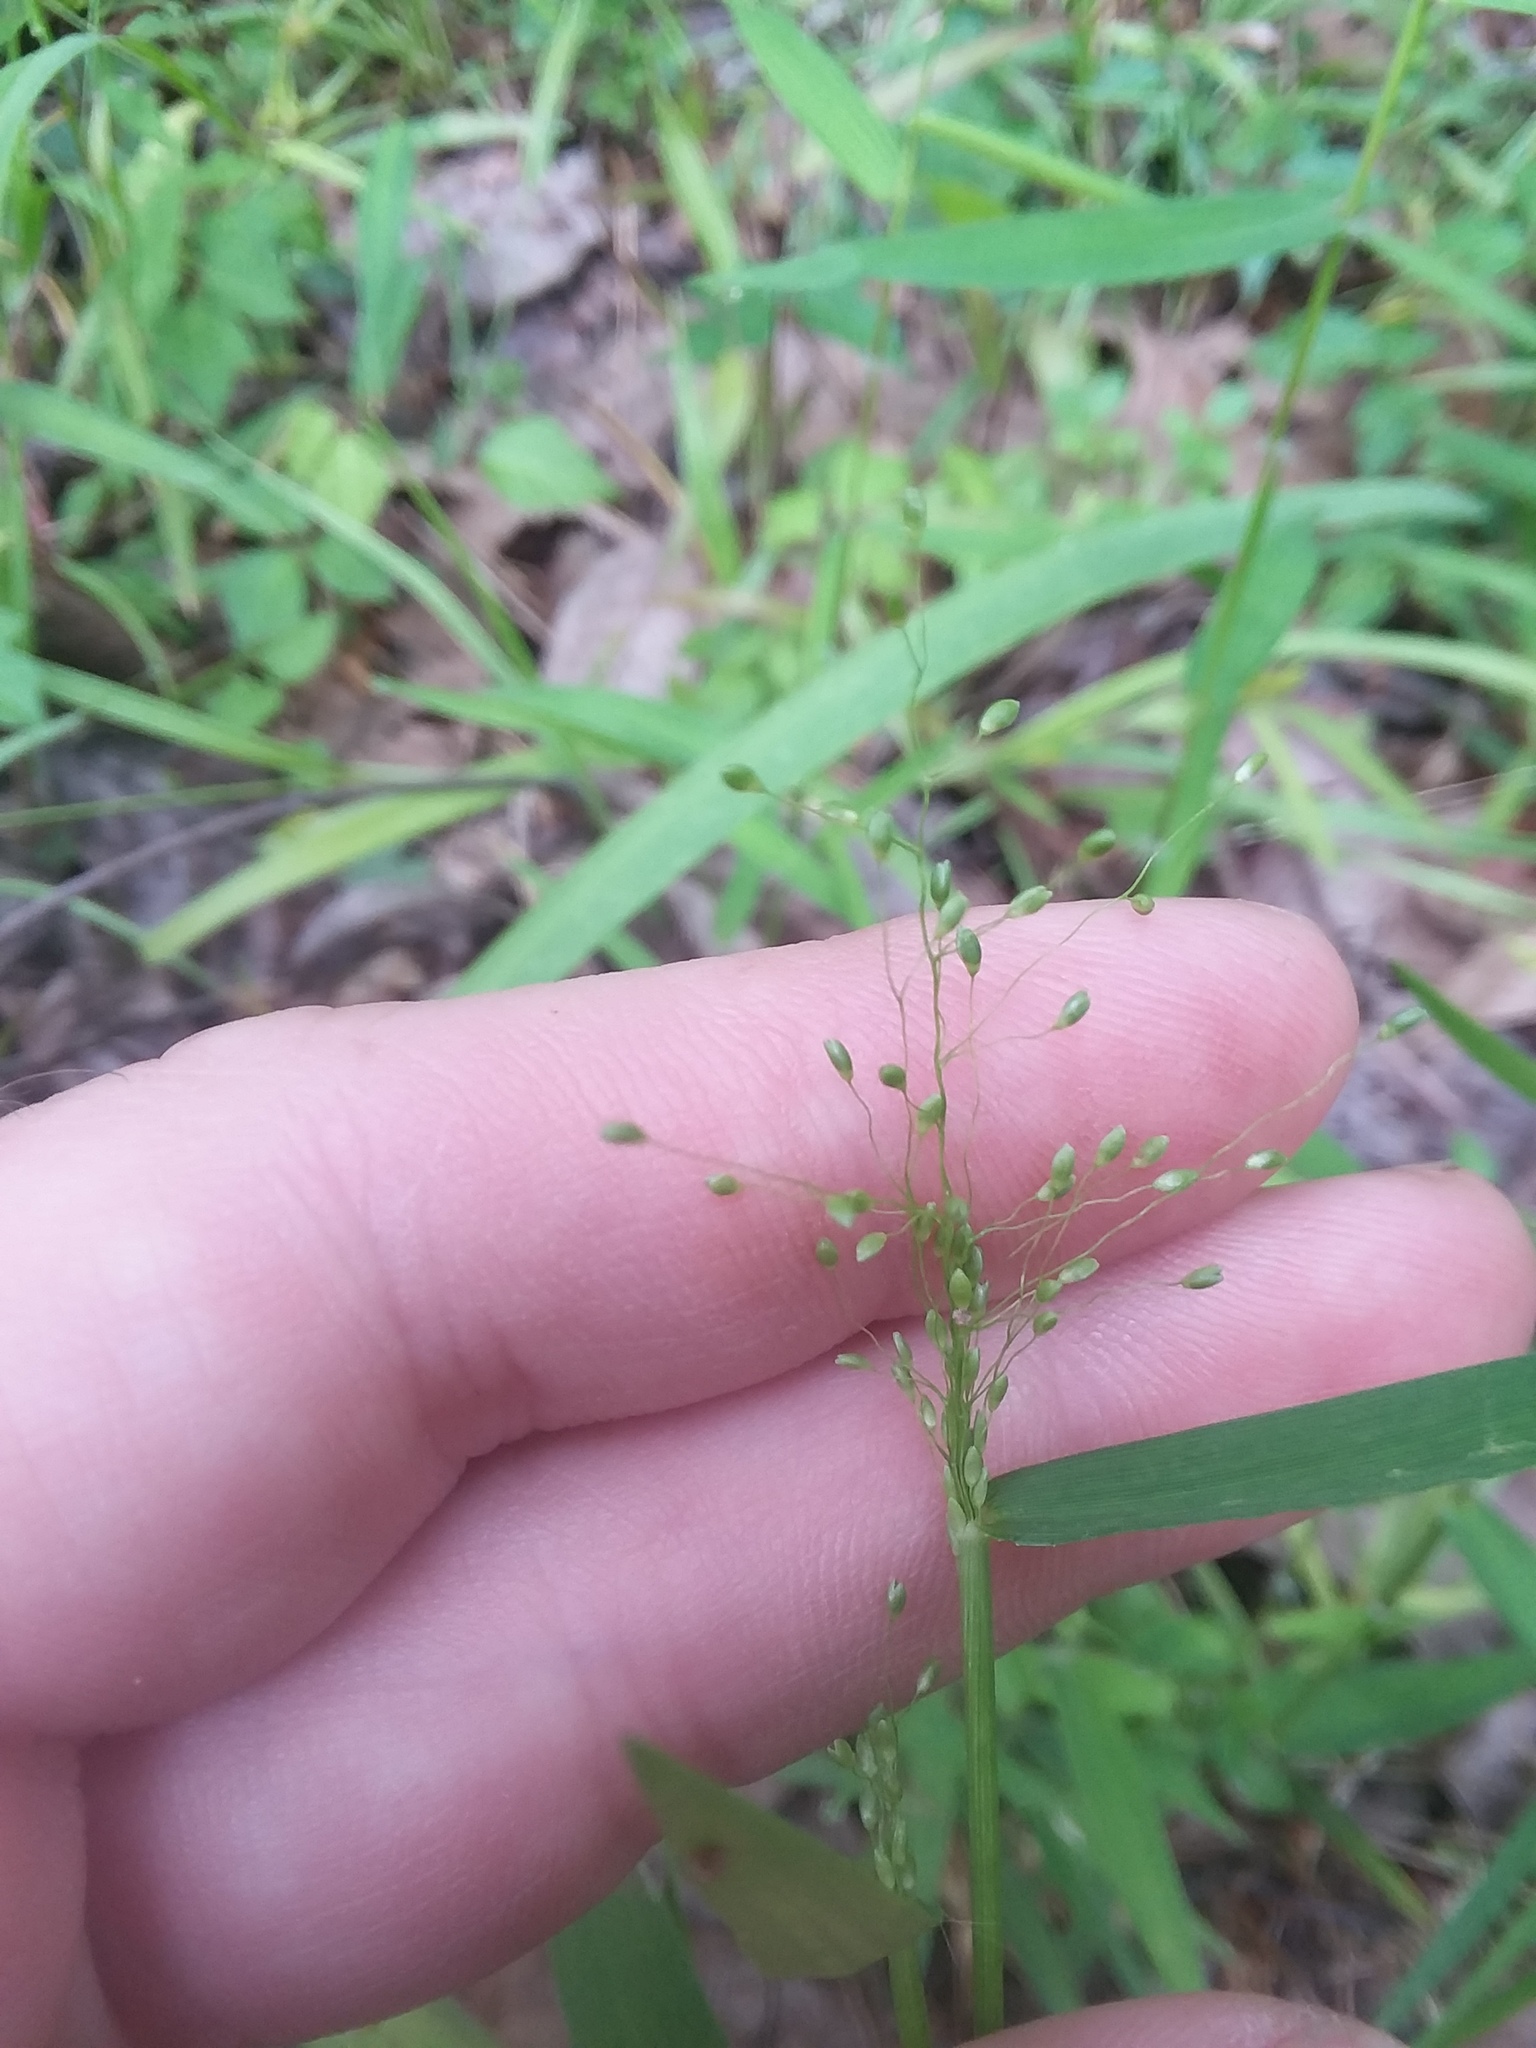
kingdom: Plantae
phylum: Tracheophyta
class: Liliopsida
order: Poales
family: Poaceae
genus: Dichanthelium
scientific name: Dichanthelium microcarpon
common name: Small-fruited witchgrass
